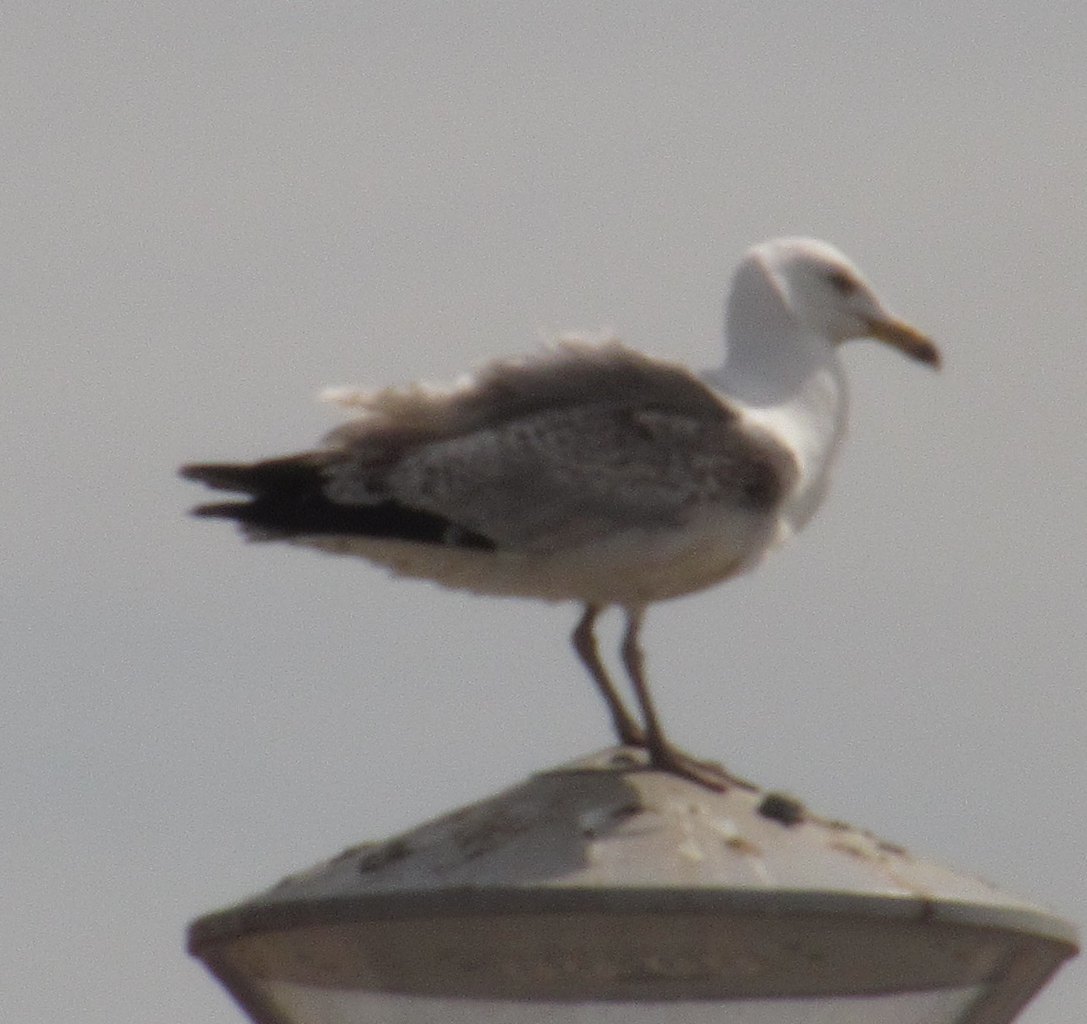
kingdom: Animalia
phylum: Chordata
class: Aves
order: Charadriiformes
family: Laridae
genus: Larus
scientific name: Larus argentatus
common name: Herring gull
